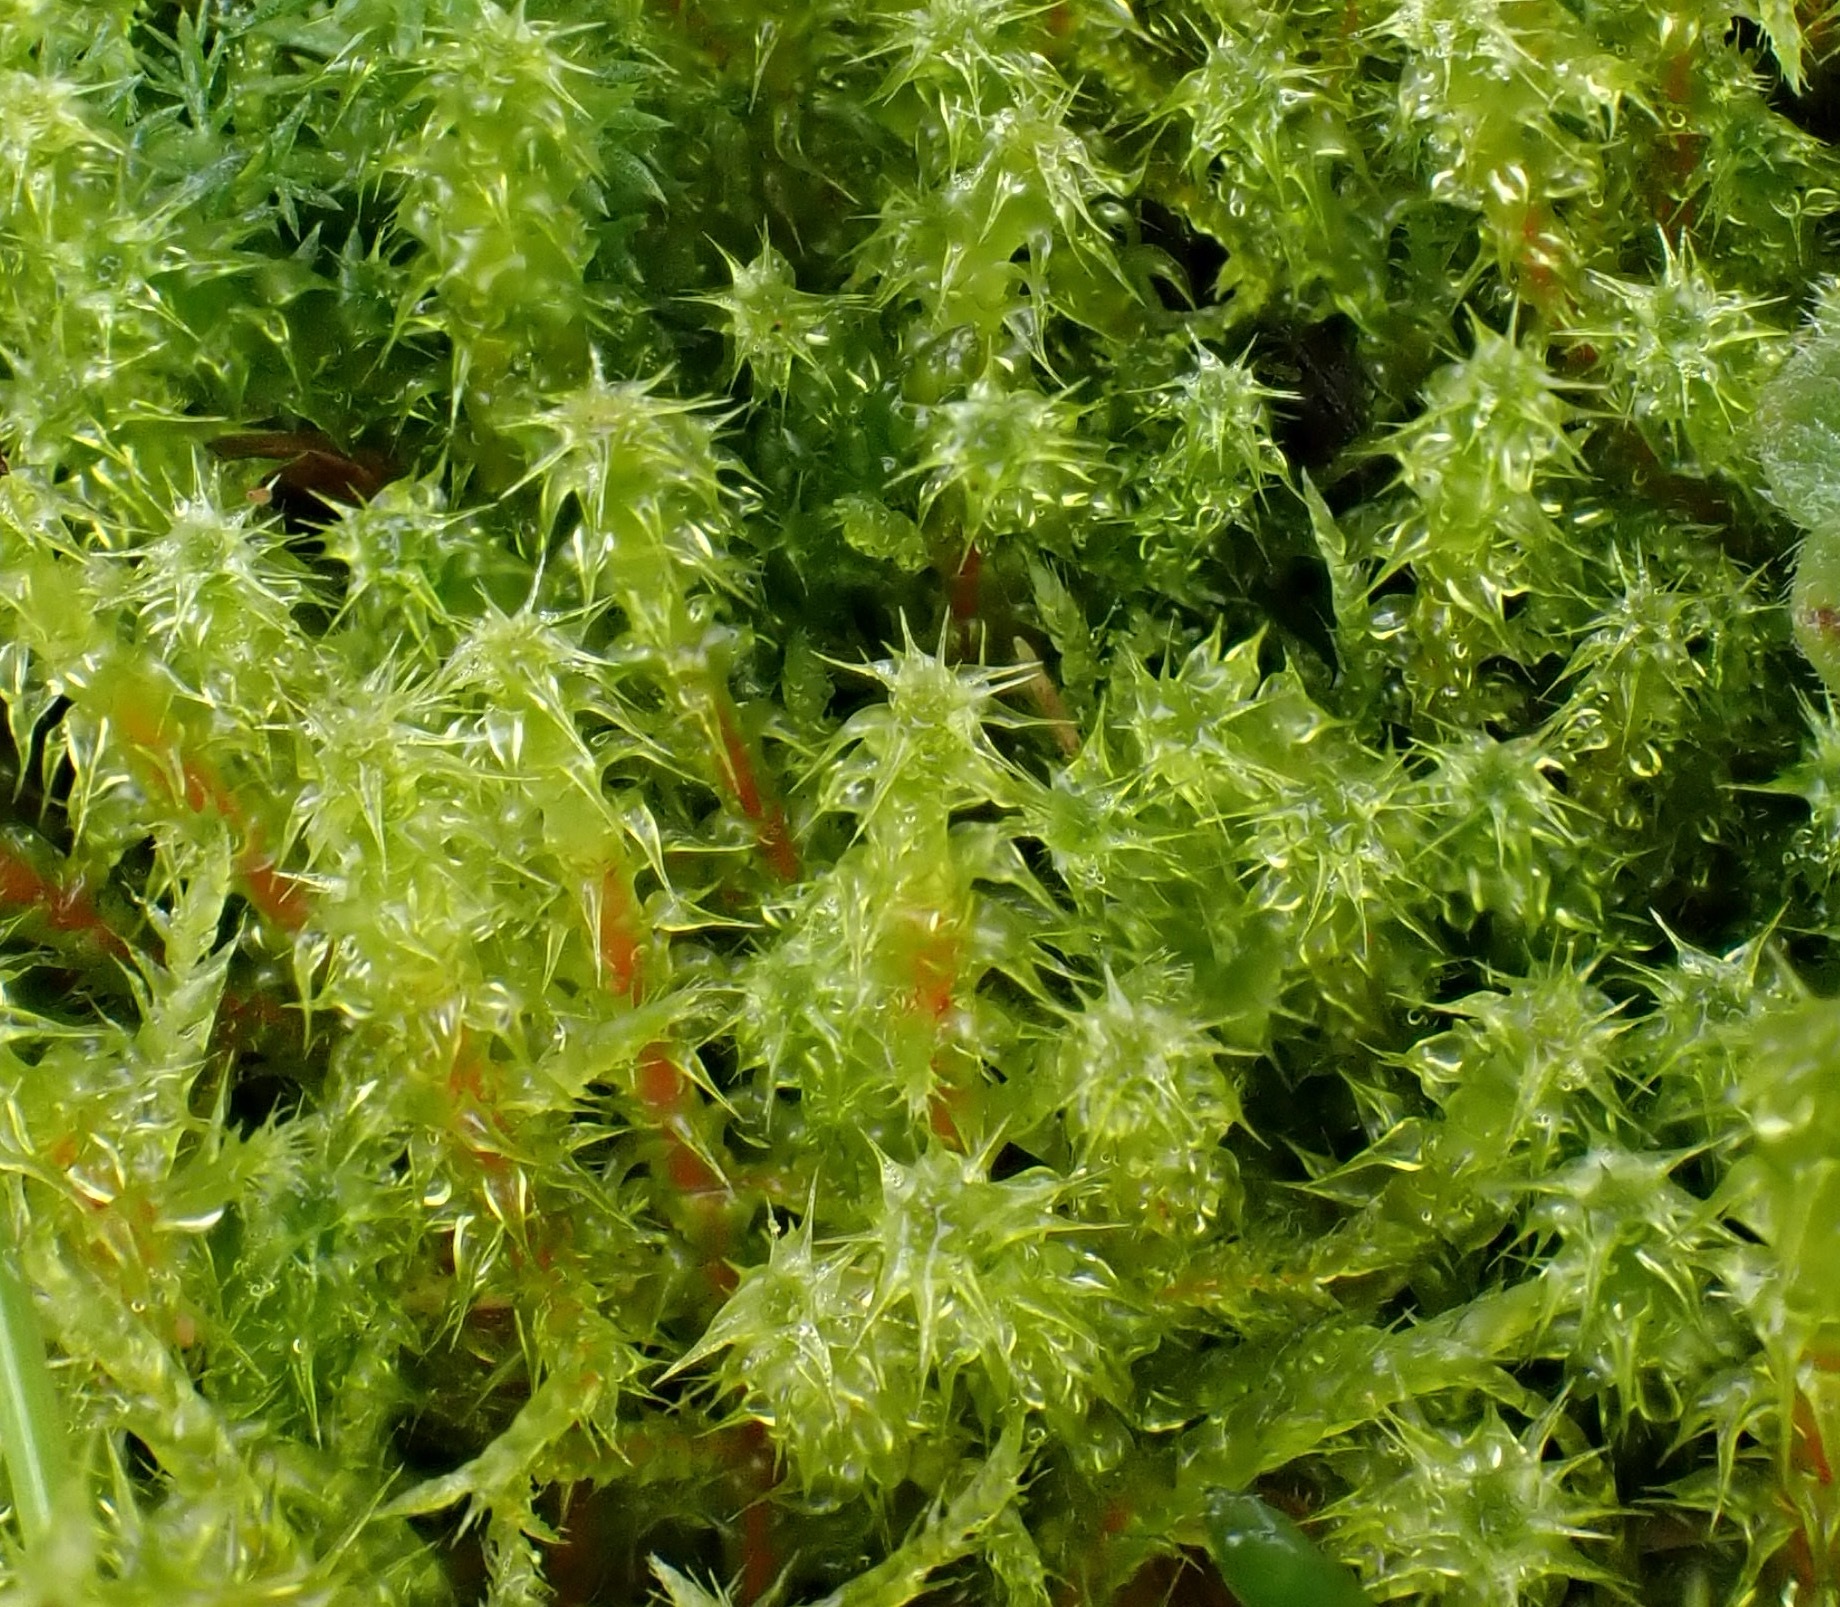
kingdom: Plantae
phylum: Bryophyta
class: Bryopsida
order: Hypnales
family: Hylocomiaceae
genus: Rhytidiadelphus
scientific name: Rhytidiadelphus squarrosus
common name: Springy turf-moss
